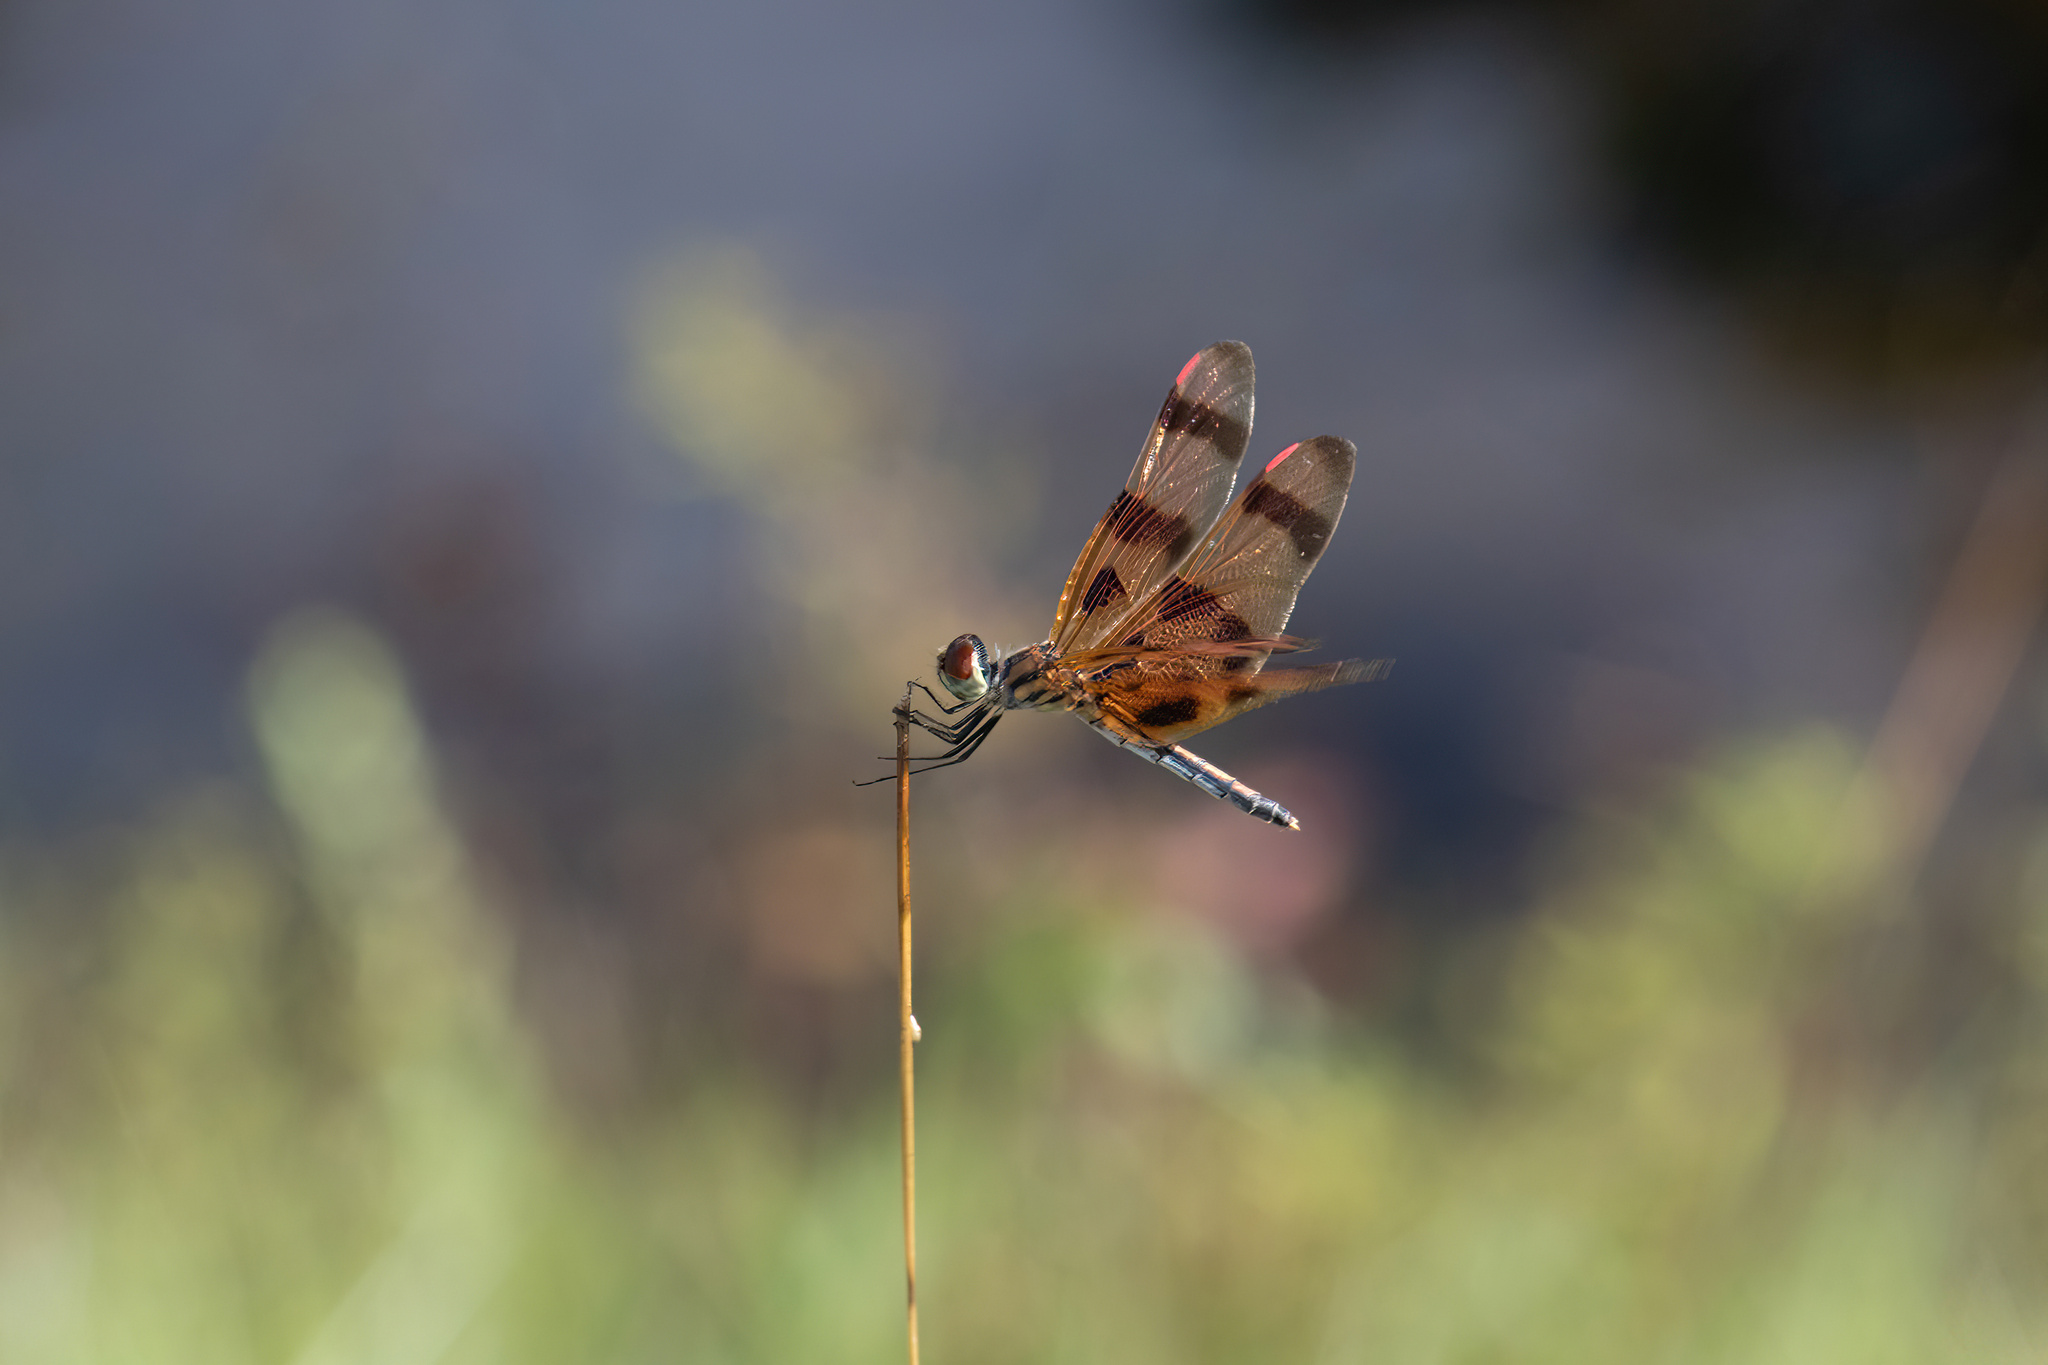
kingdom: Animalia
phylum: Arthropoda
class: Insecta
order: Odonata
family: Libellulidae
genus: Celithemis
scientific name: Celithemis eponina
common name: Halloween pennant
